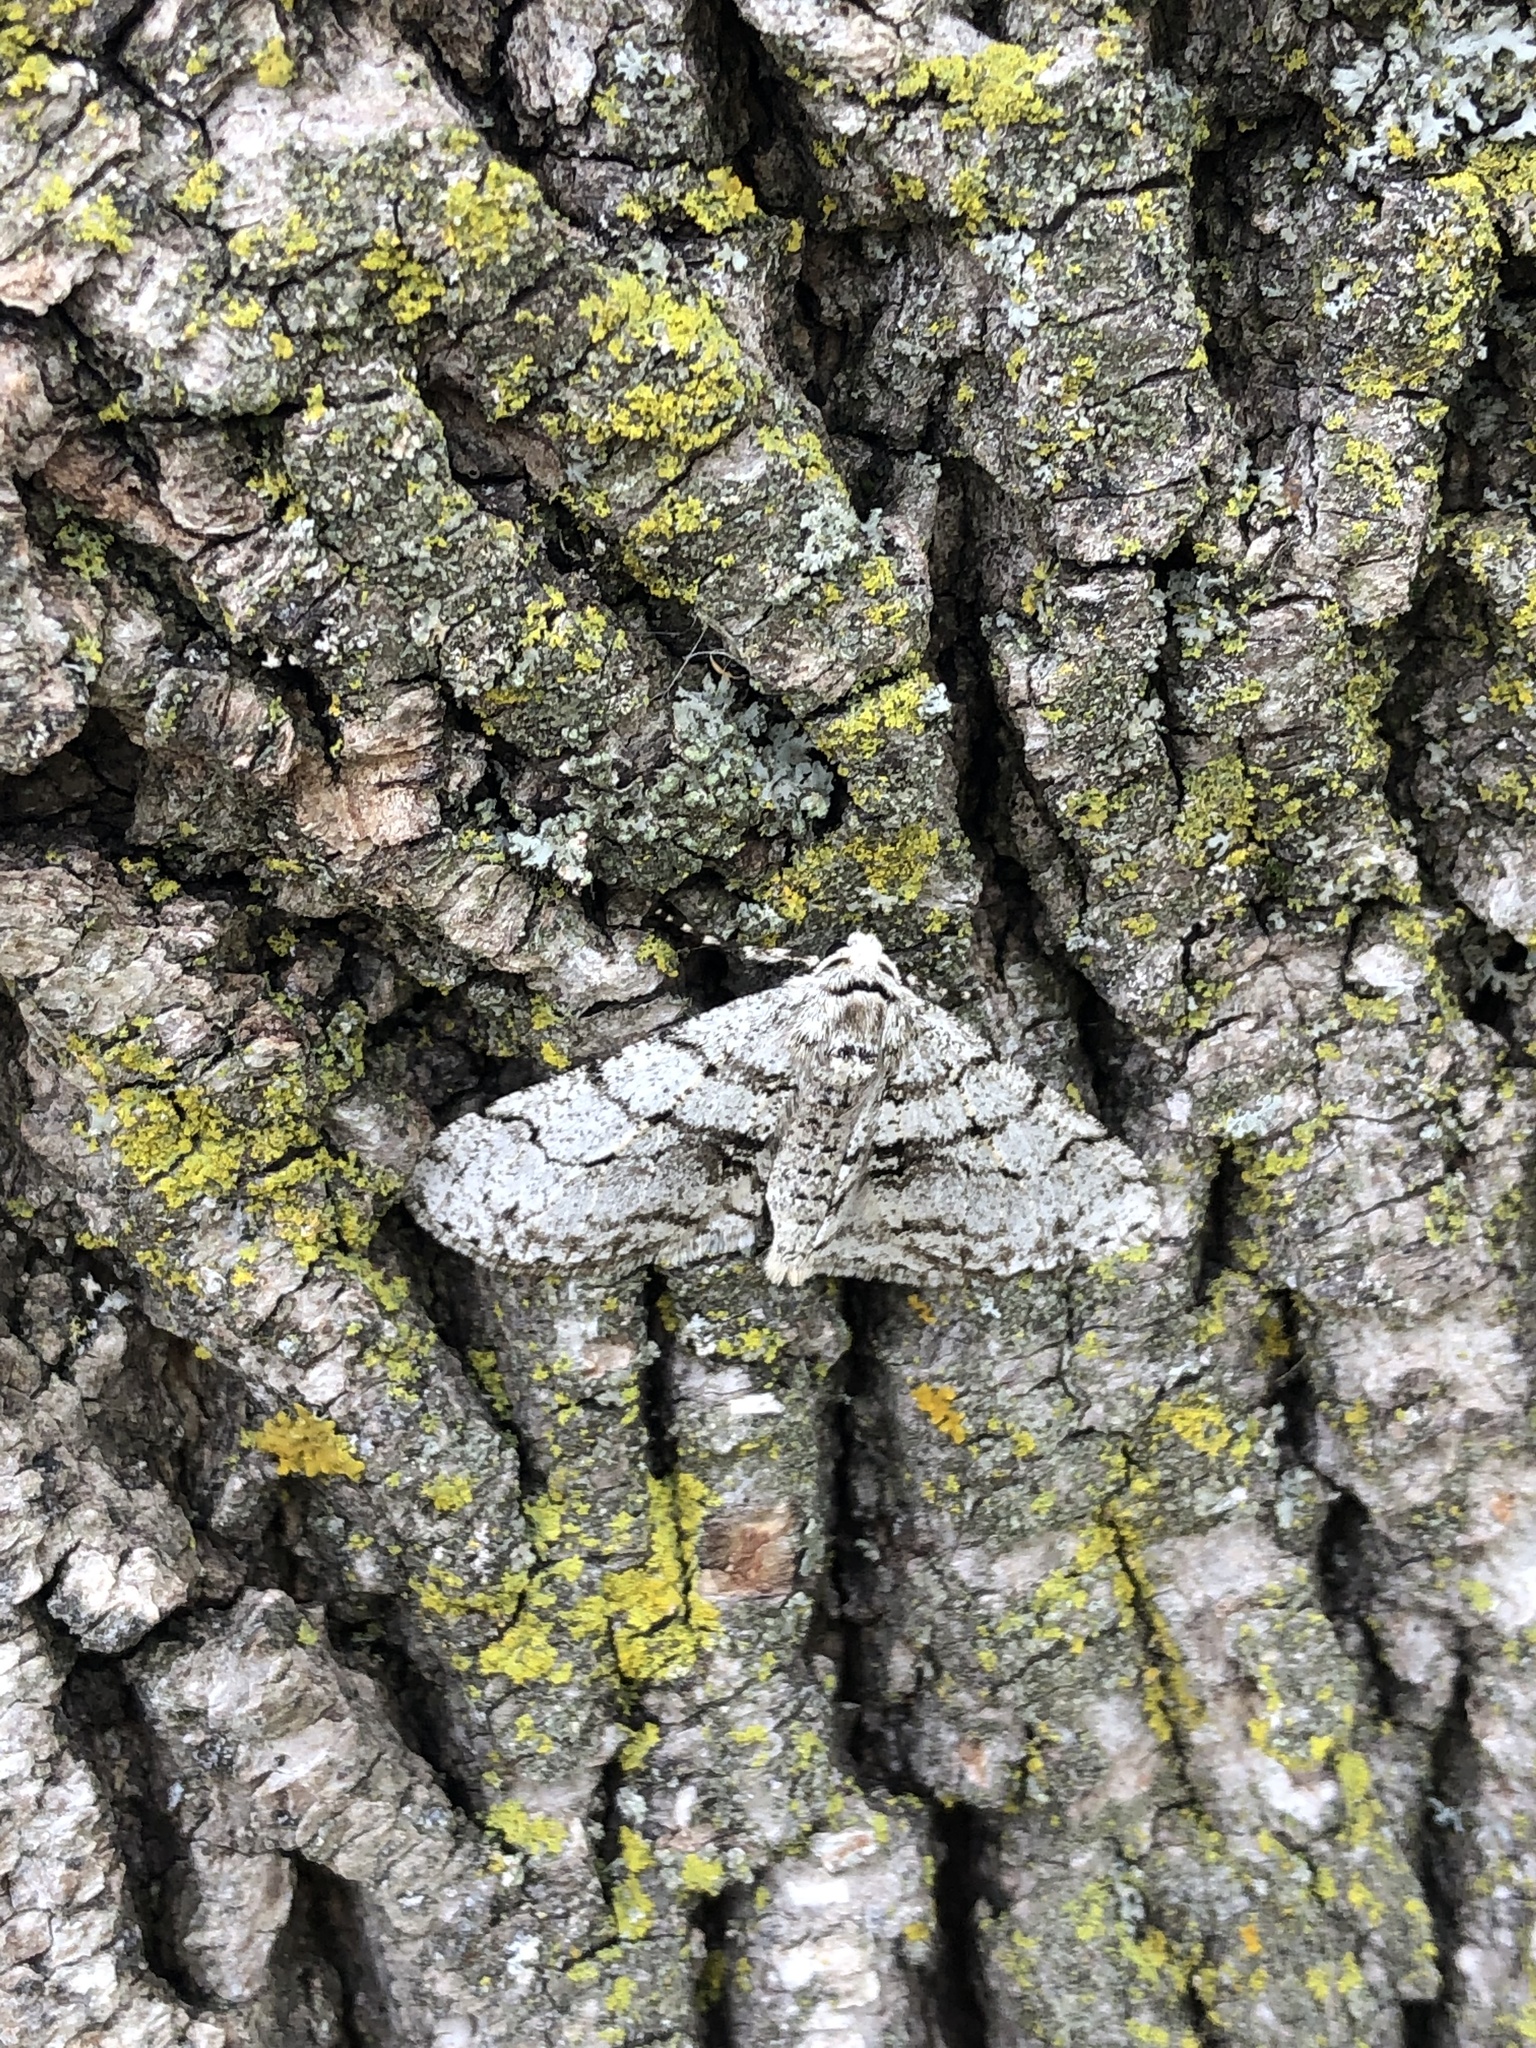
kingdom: Animalia
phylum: Arthropoda
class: Insecta
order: Lepidoptera
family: Geometridae
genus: Phigalia
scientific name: Phigalia titea
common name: Spiny looper
